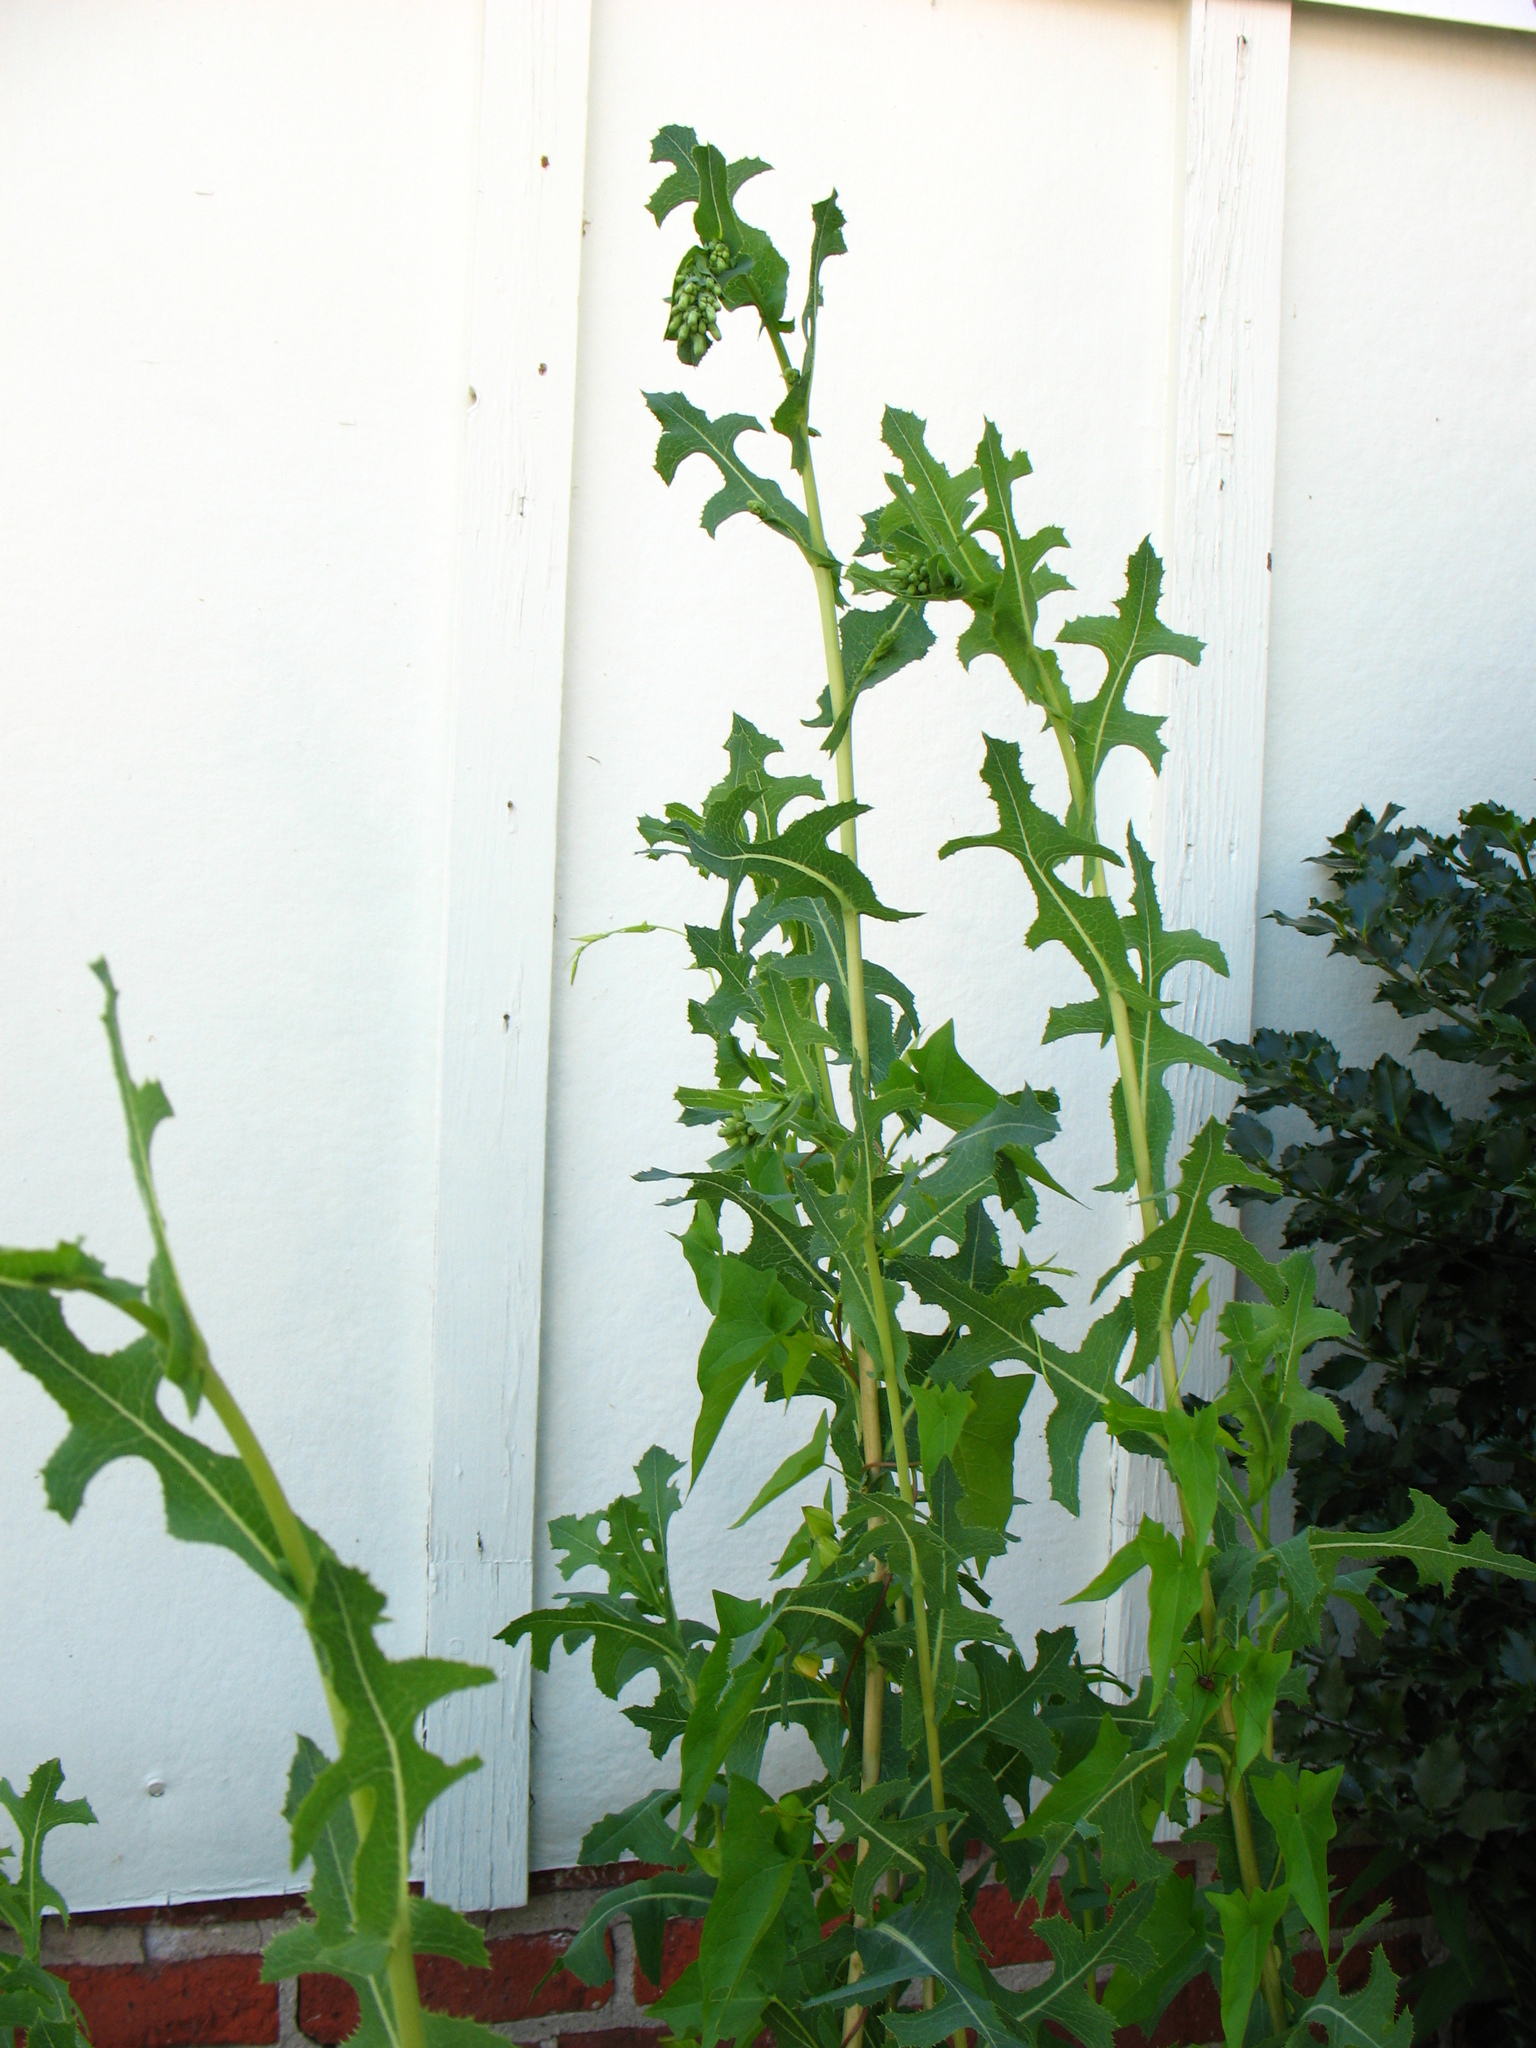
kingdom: Plantae
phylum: Tracheophyta
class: Magnoliopsida
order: Asterales
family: Asteraceae
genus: Lactuca
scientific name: Lactuca serriola
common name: Prickly lettuce
